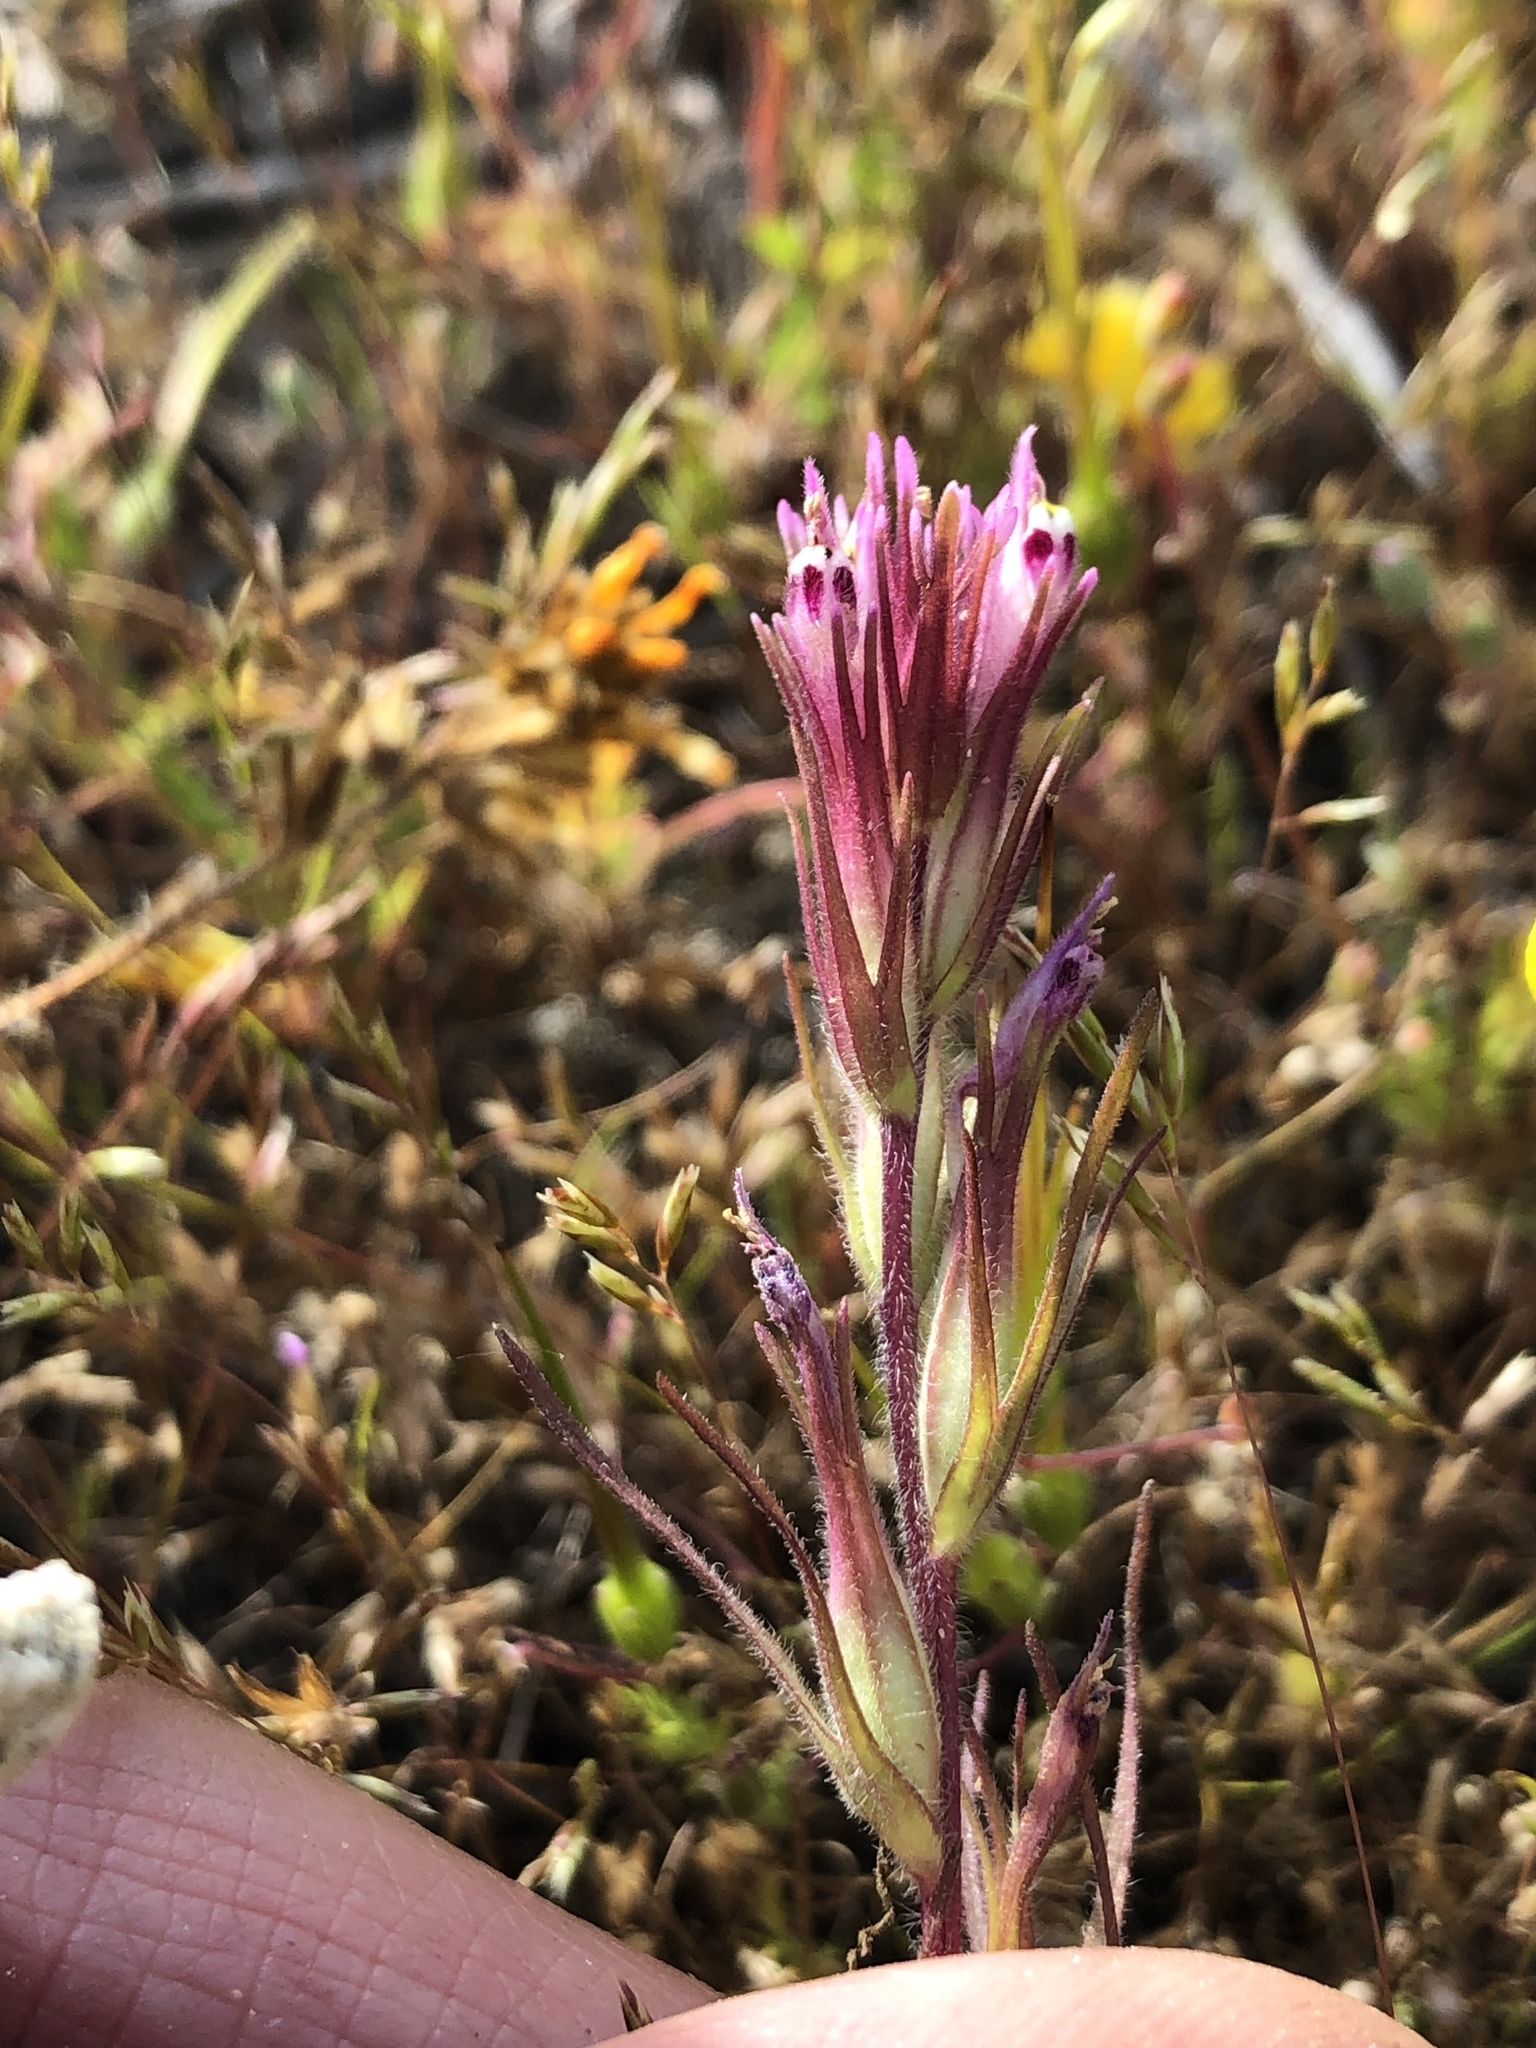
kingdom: Plantae
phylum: Tracheophyta
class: Magnoliopsida
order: Lamiales
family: Orobanchaceae
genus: Castilleja
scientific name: Castilleja densiflora
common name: Dense-flower indian paintbrush
